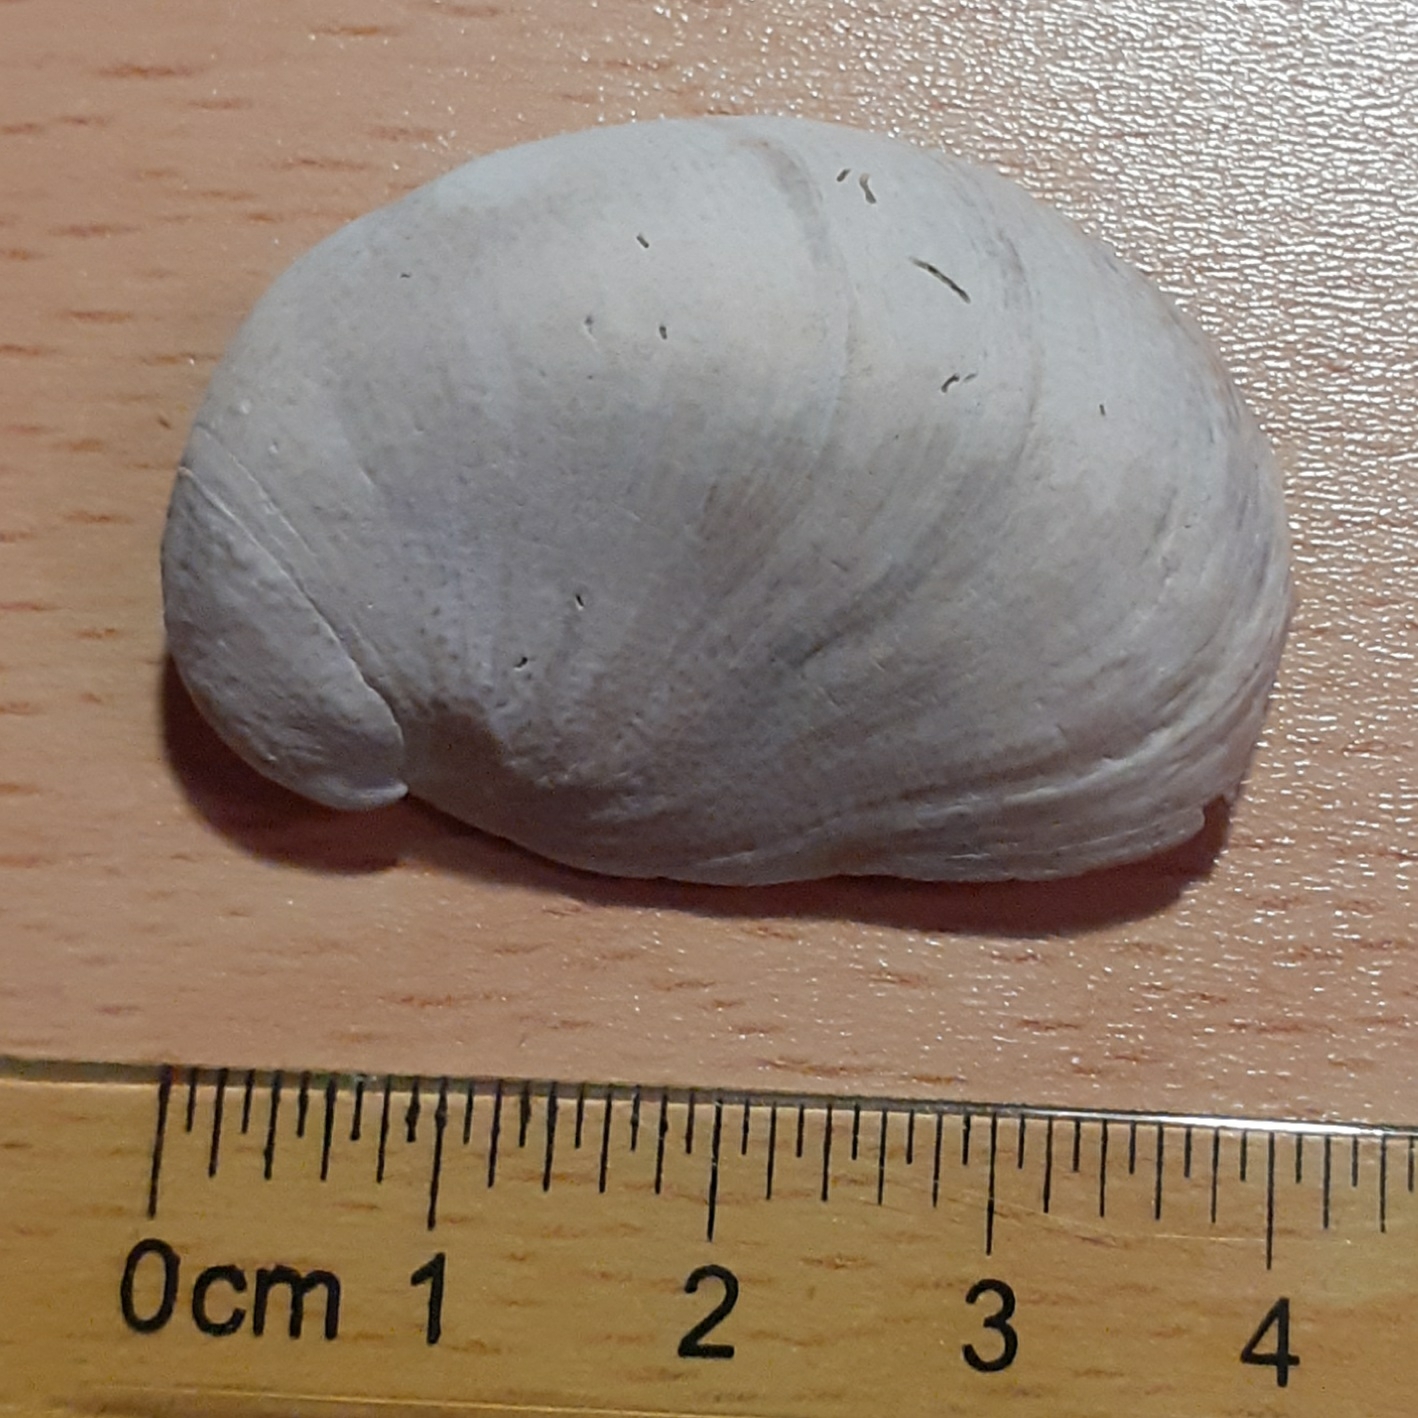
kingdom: Animalia
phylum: Mollusca
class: Gastropoda
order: Littorinimorpha
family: Calyptraeidae
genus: Crepidula
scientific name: Crepidula fornicata
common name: Slipper limpet
